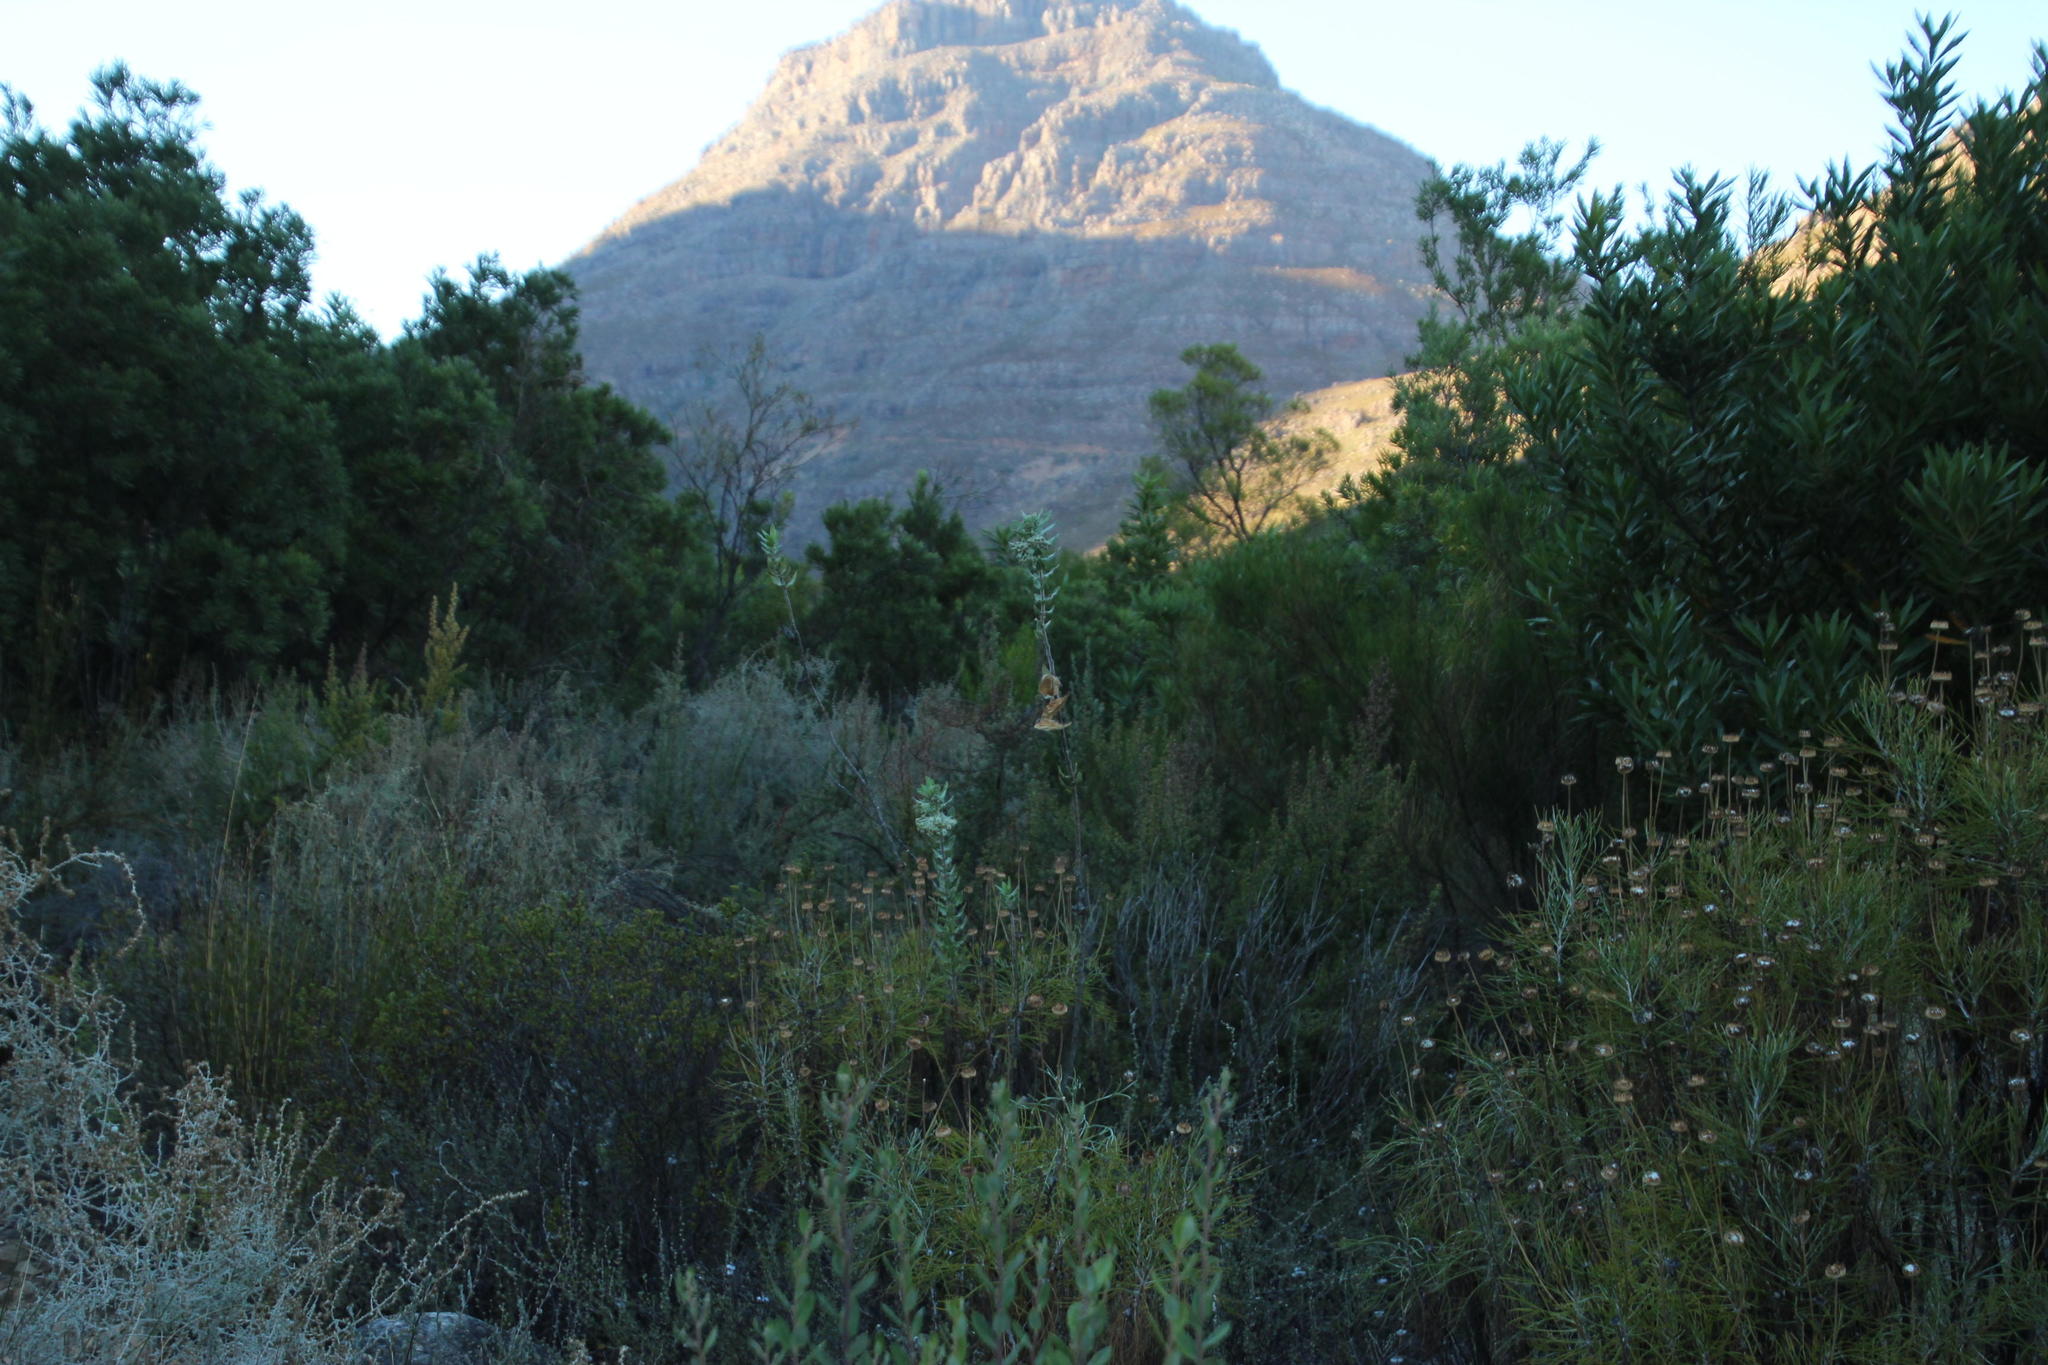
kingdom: Plantae
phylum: Tracheophyta
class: Magnoliopsida
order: Gentianales
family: Apocynaceae
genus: Gomphocarpus
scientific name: Gomphocarpus cancellatus
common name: Wild cotton
